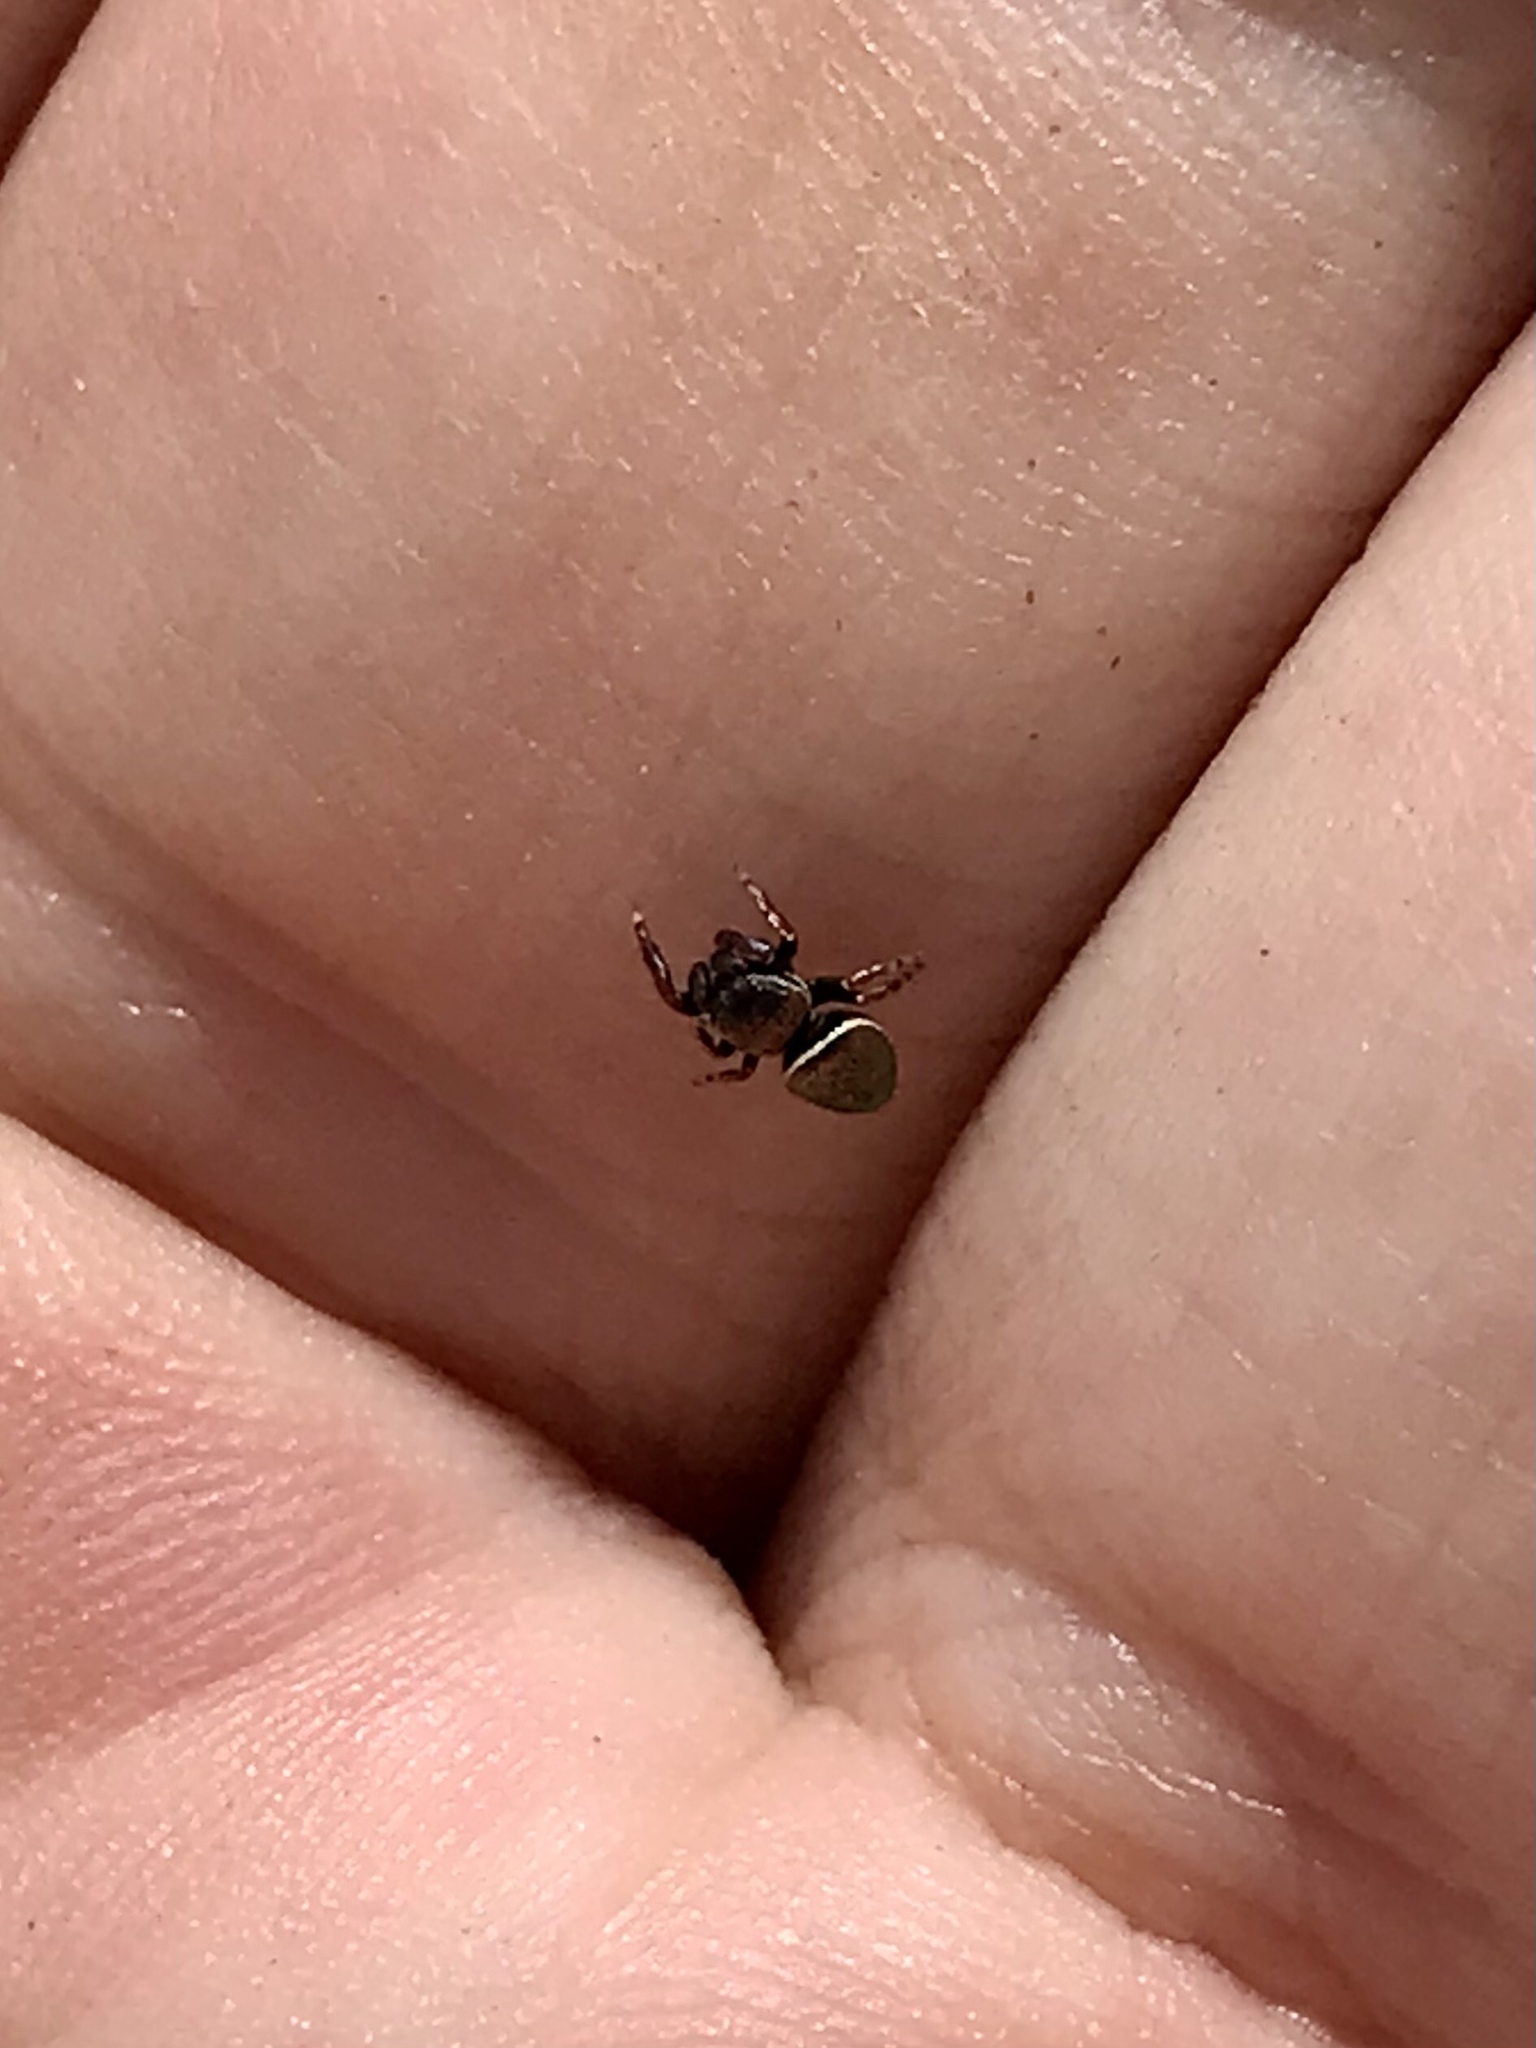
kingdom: Animalia
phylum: Arthropoda
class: Arachnida
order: Araneae
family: Salticidae
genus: Sassacus
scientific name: Sassacus papenhoei
